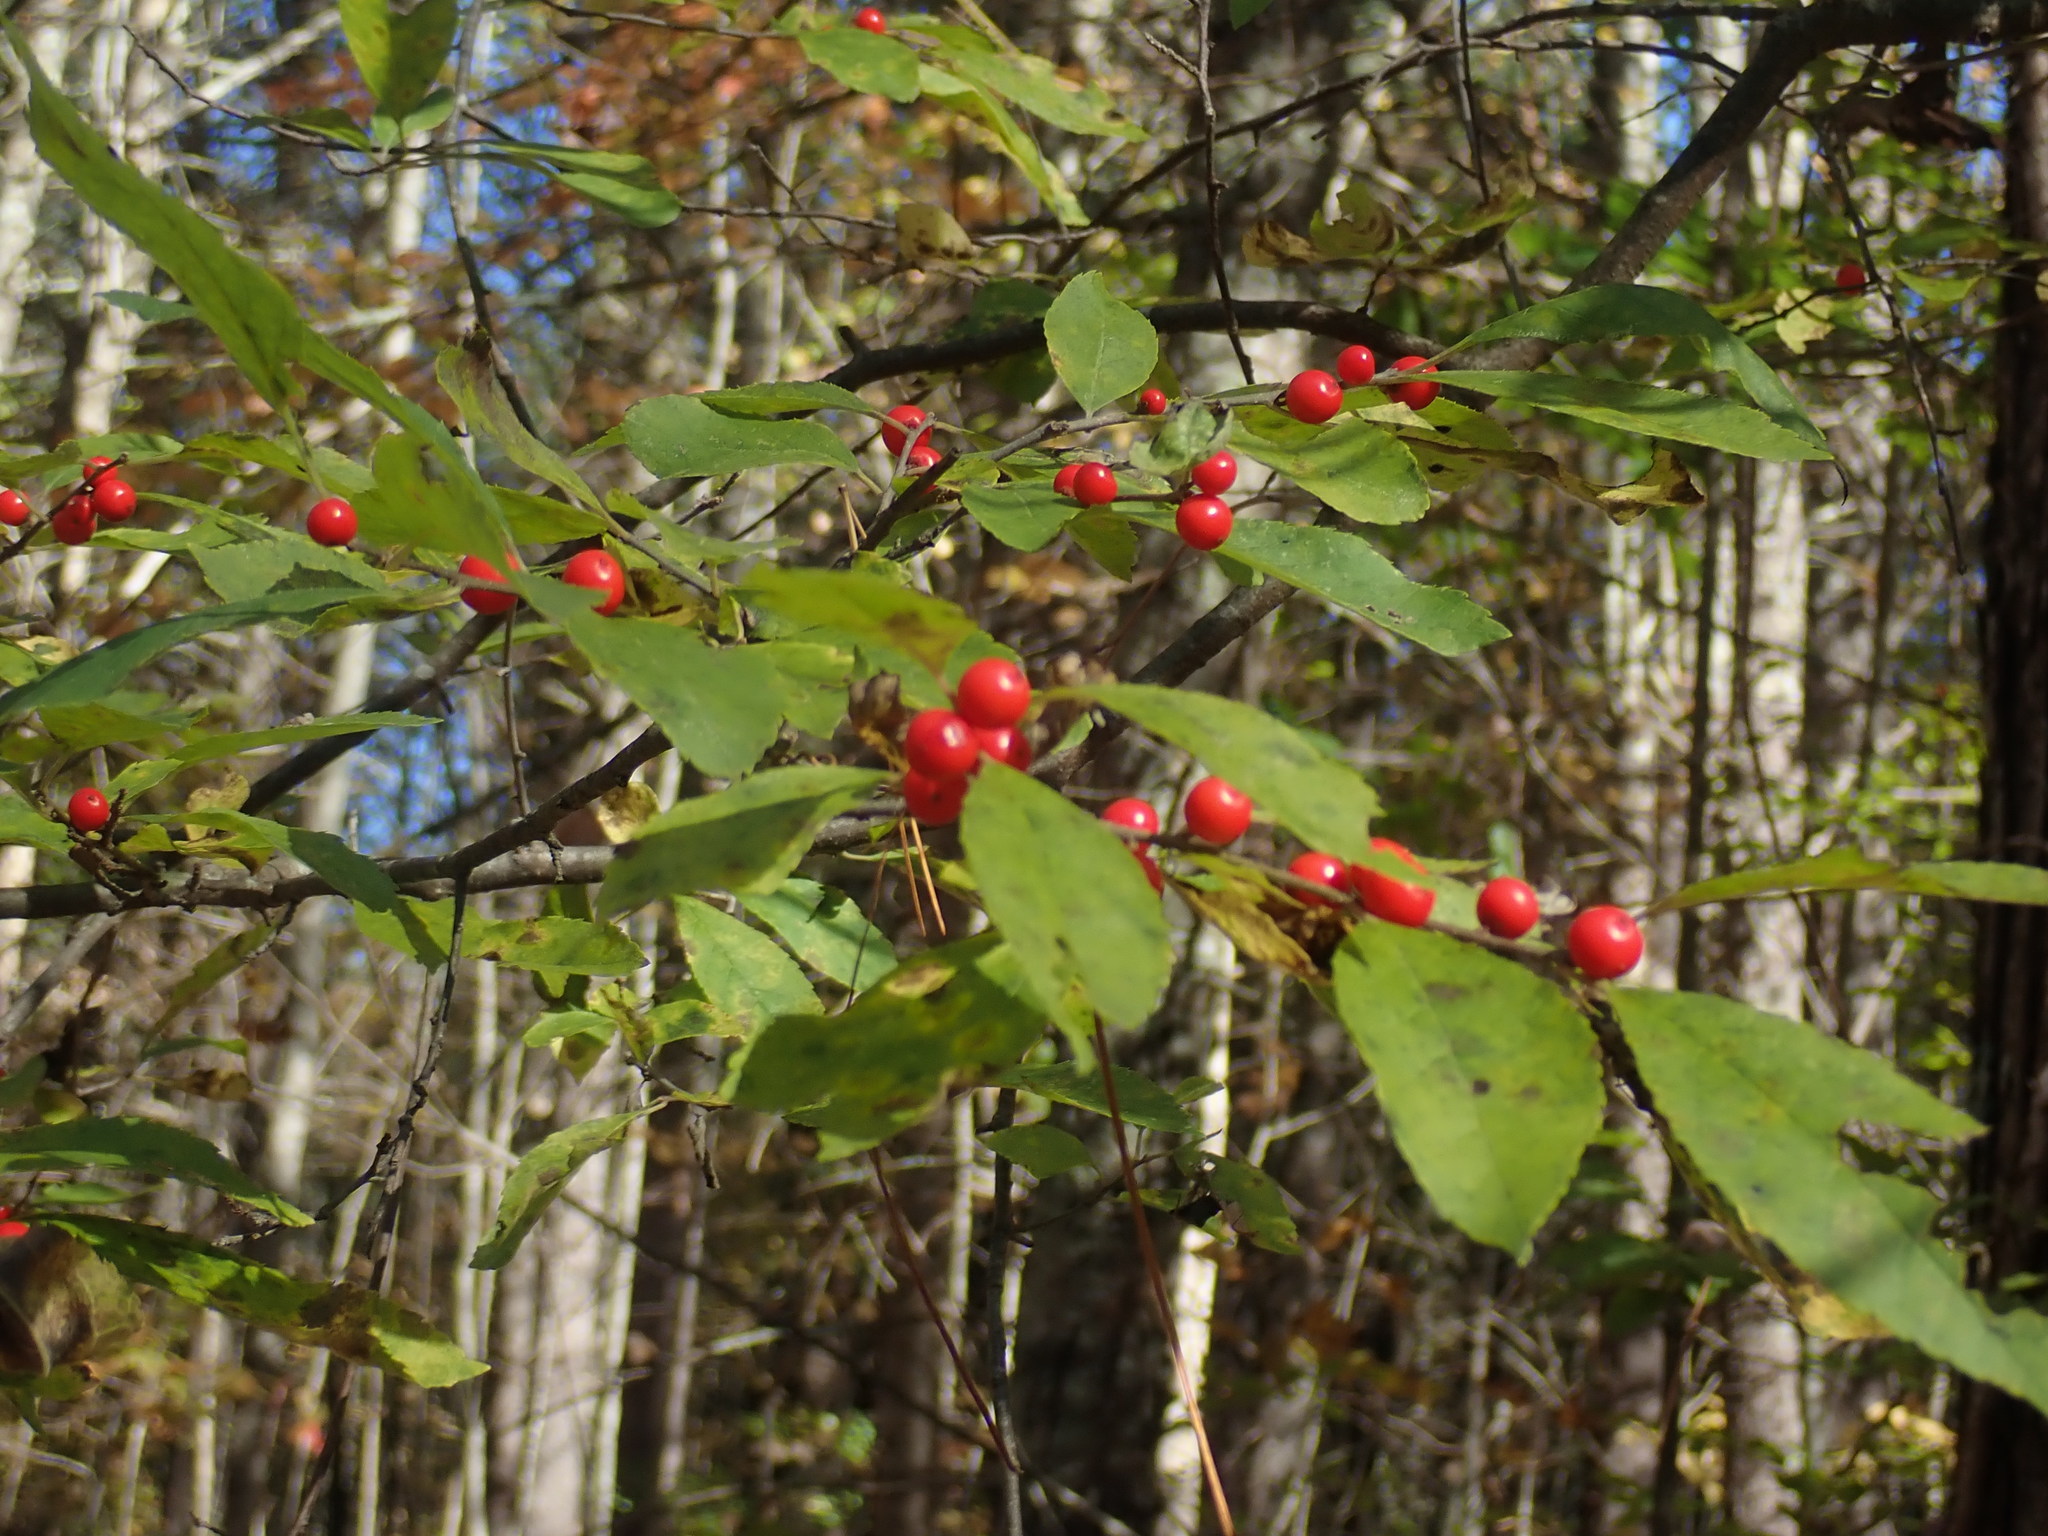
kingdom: Plantae
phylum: Tracheophyta
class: Magnoliopsida
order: Aquifoliales
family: Aquifoliaceae
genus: Ilex
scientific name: Ilex verticillata
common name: Virginia winterberry
